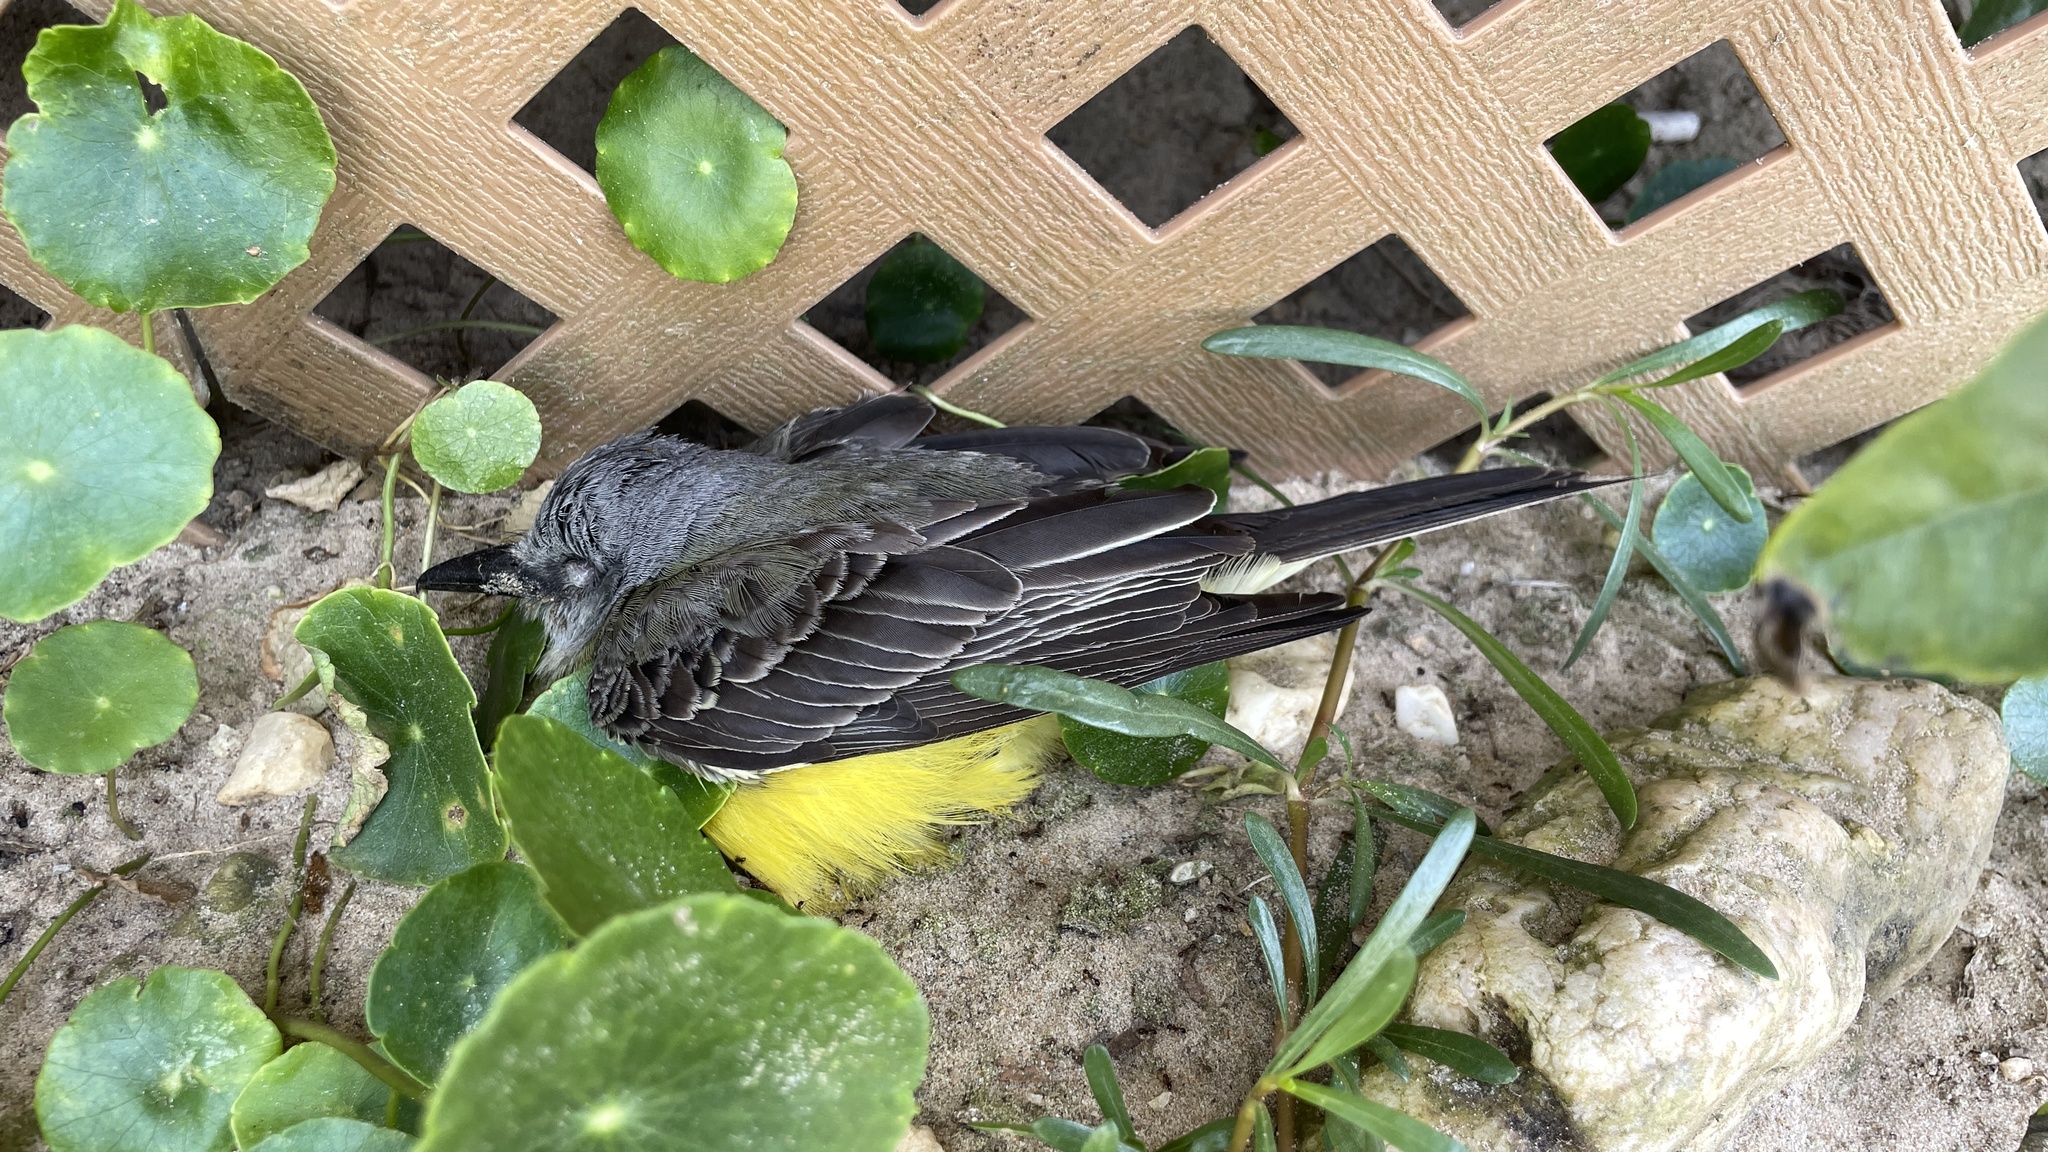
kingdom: Animalia
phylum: Chordata
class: Aves
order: Passeriformes
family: Tyrannidae
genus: Tyrannus
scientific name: Tyrannus melancholicus
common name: Tropical kingbird
